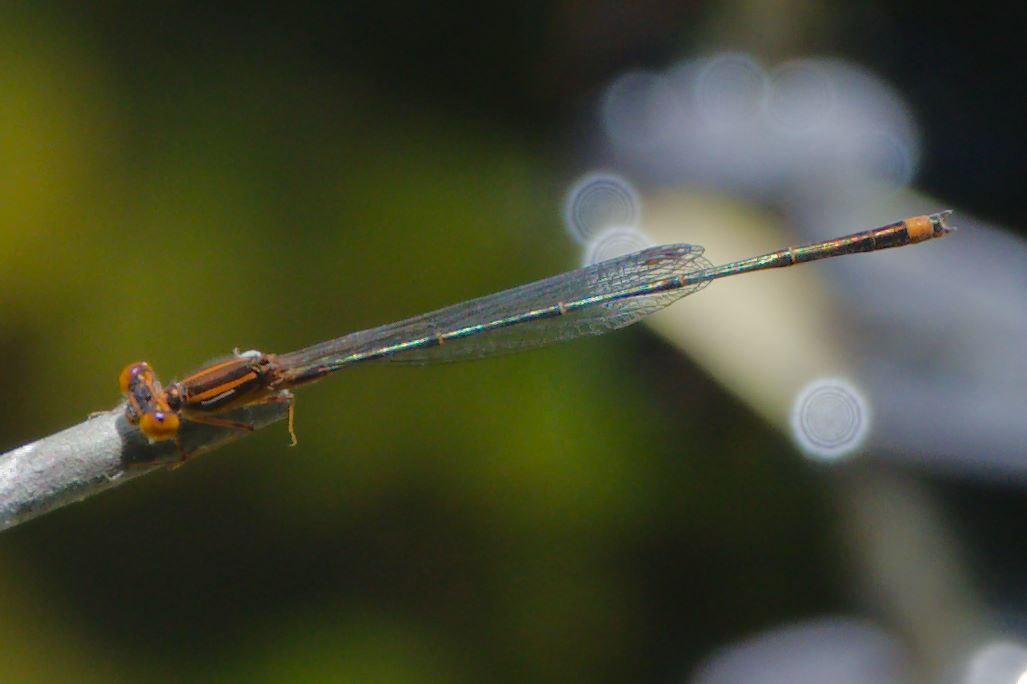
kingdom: Animalia
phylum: Arthropoda
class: Insecta
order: Odonata
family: Coenagrionidae
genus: Enallagma
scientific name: Enallagma signatum
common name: Orange bluet
